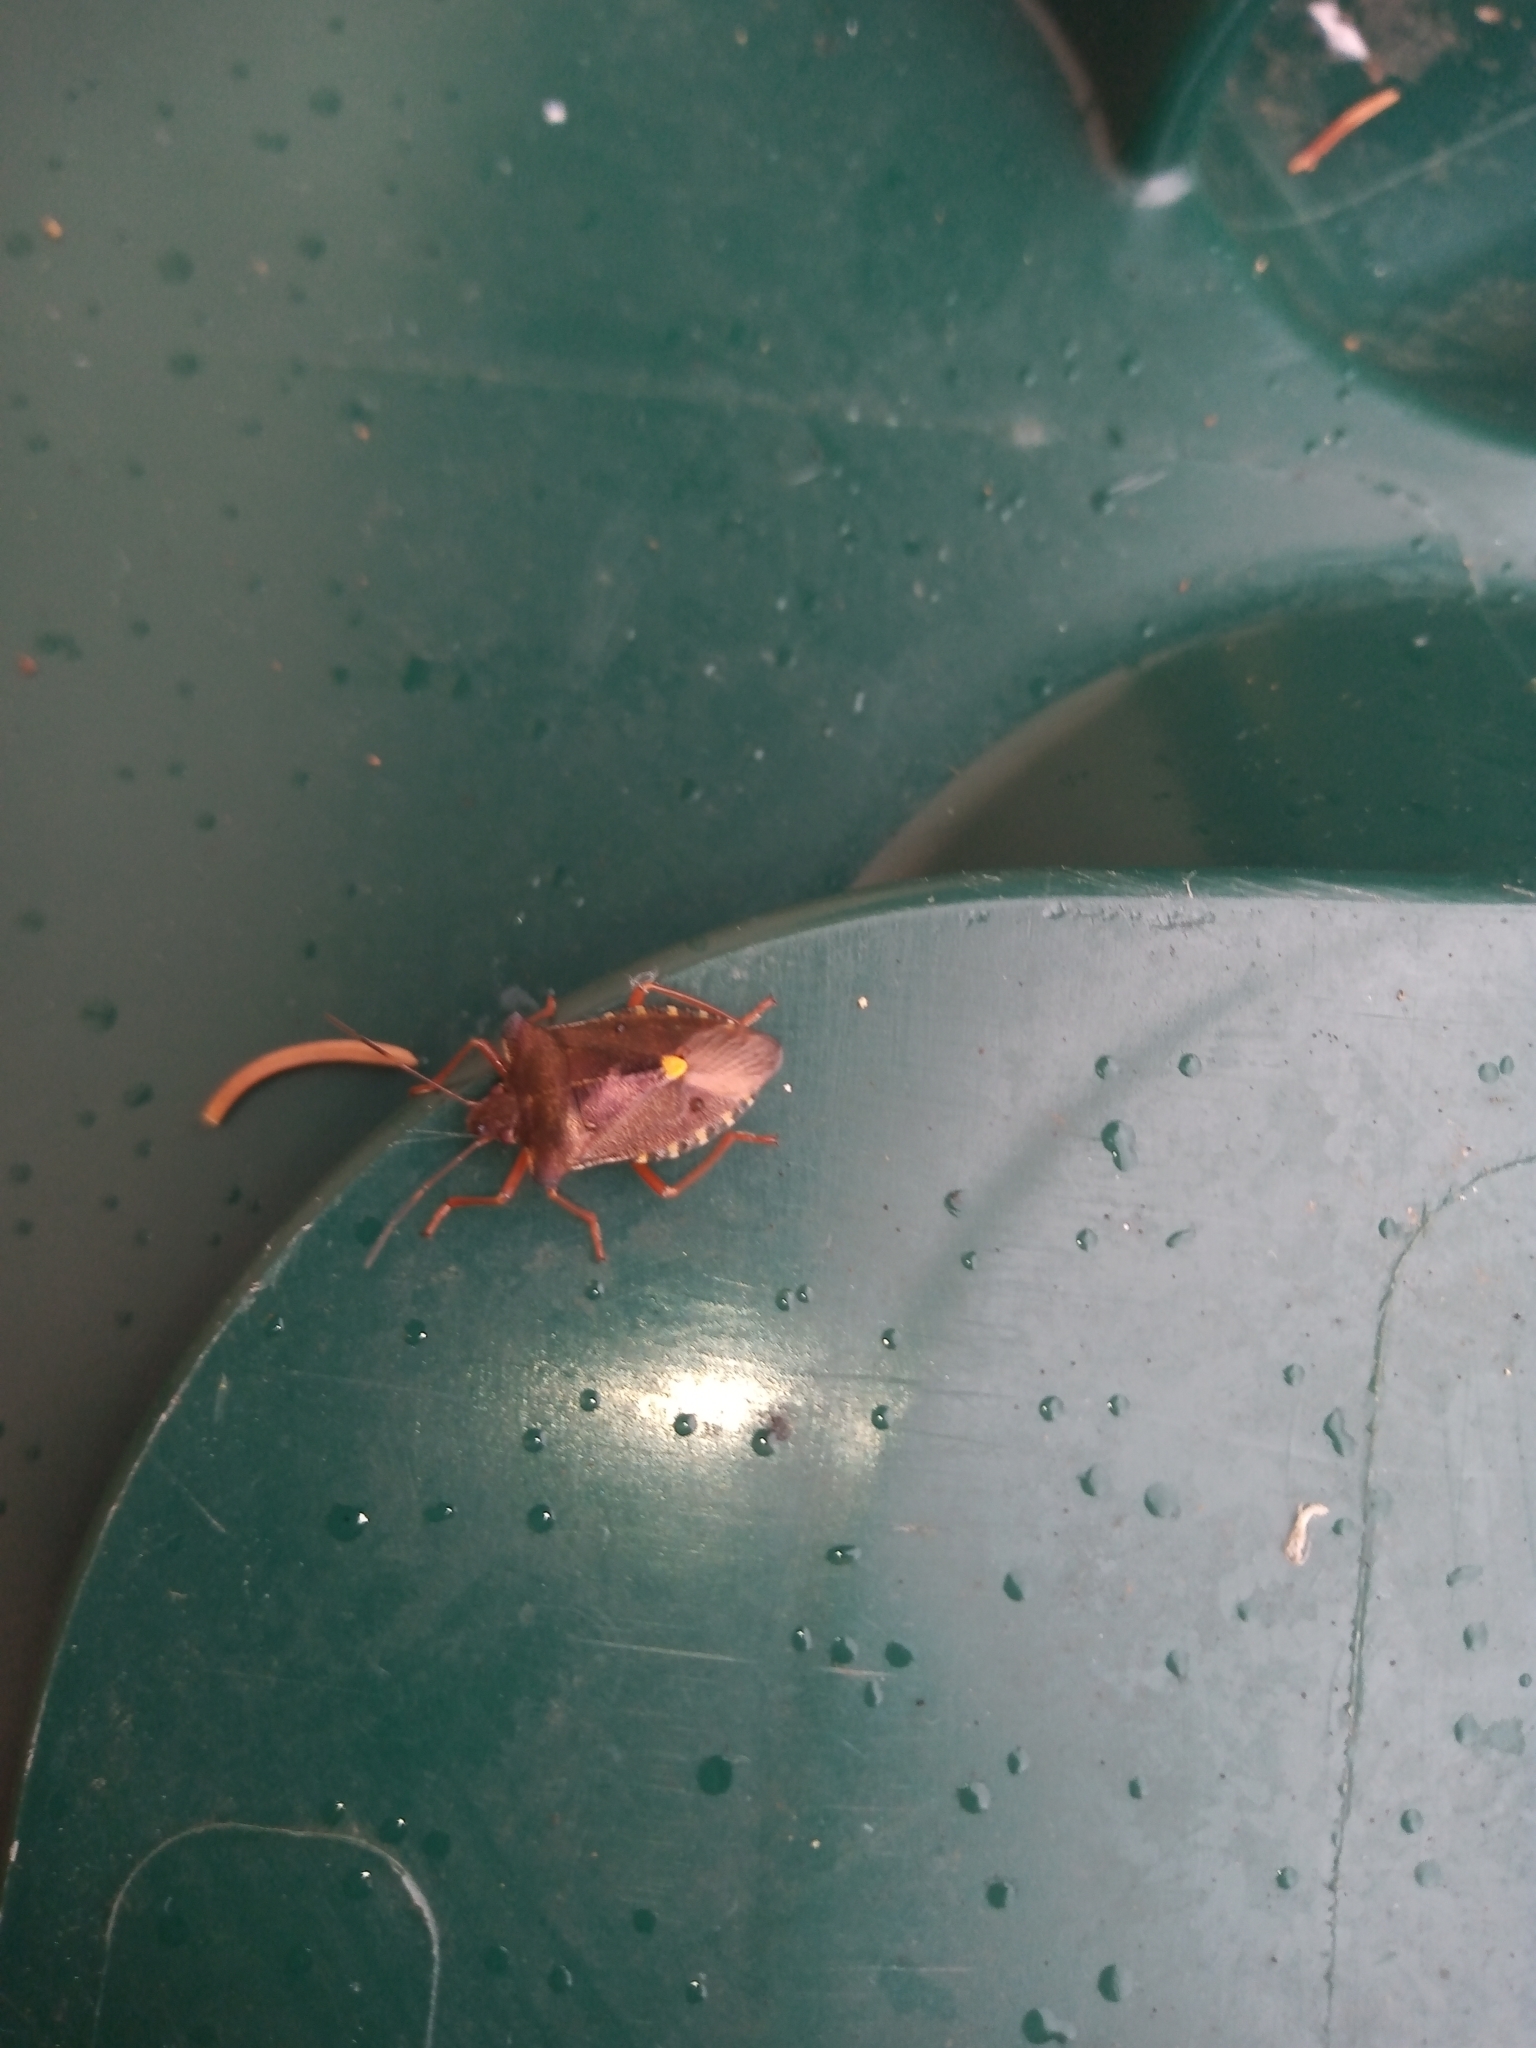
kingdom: Animalia
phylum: Arthropoda
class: Insecta
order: Hemiptera
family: Pentatomidae
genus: Pentatoma
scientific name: Pentatoma rufipes
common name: Forest bug
